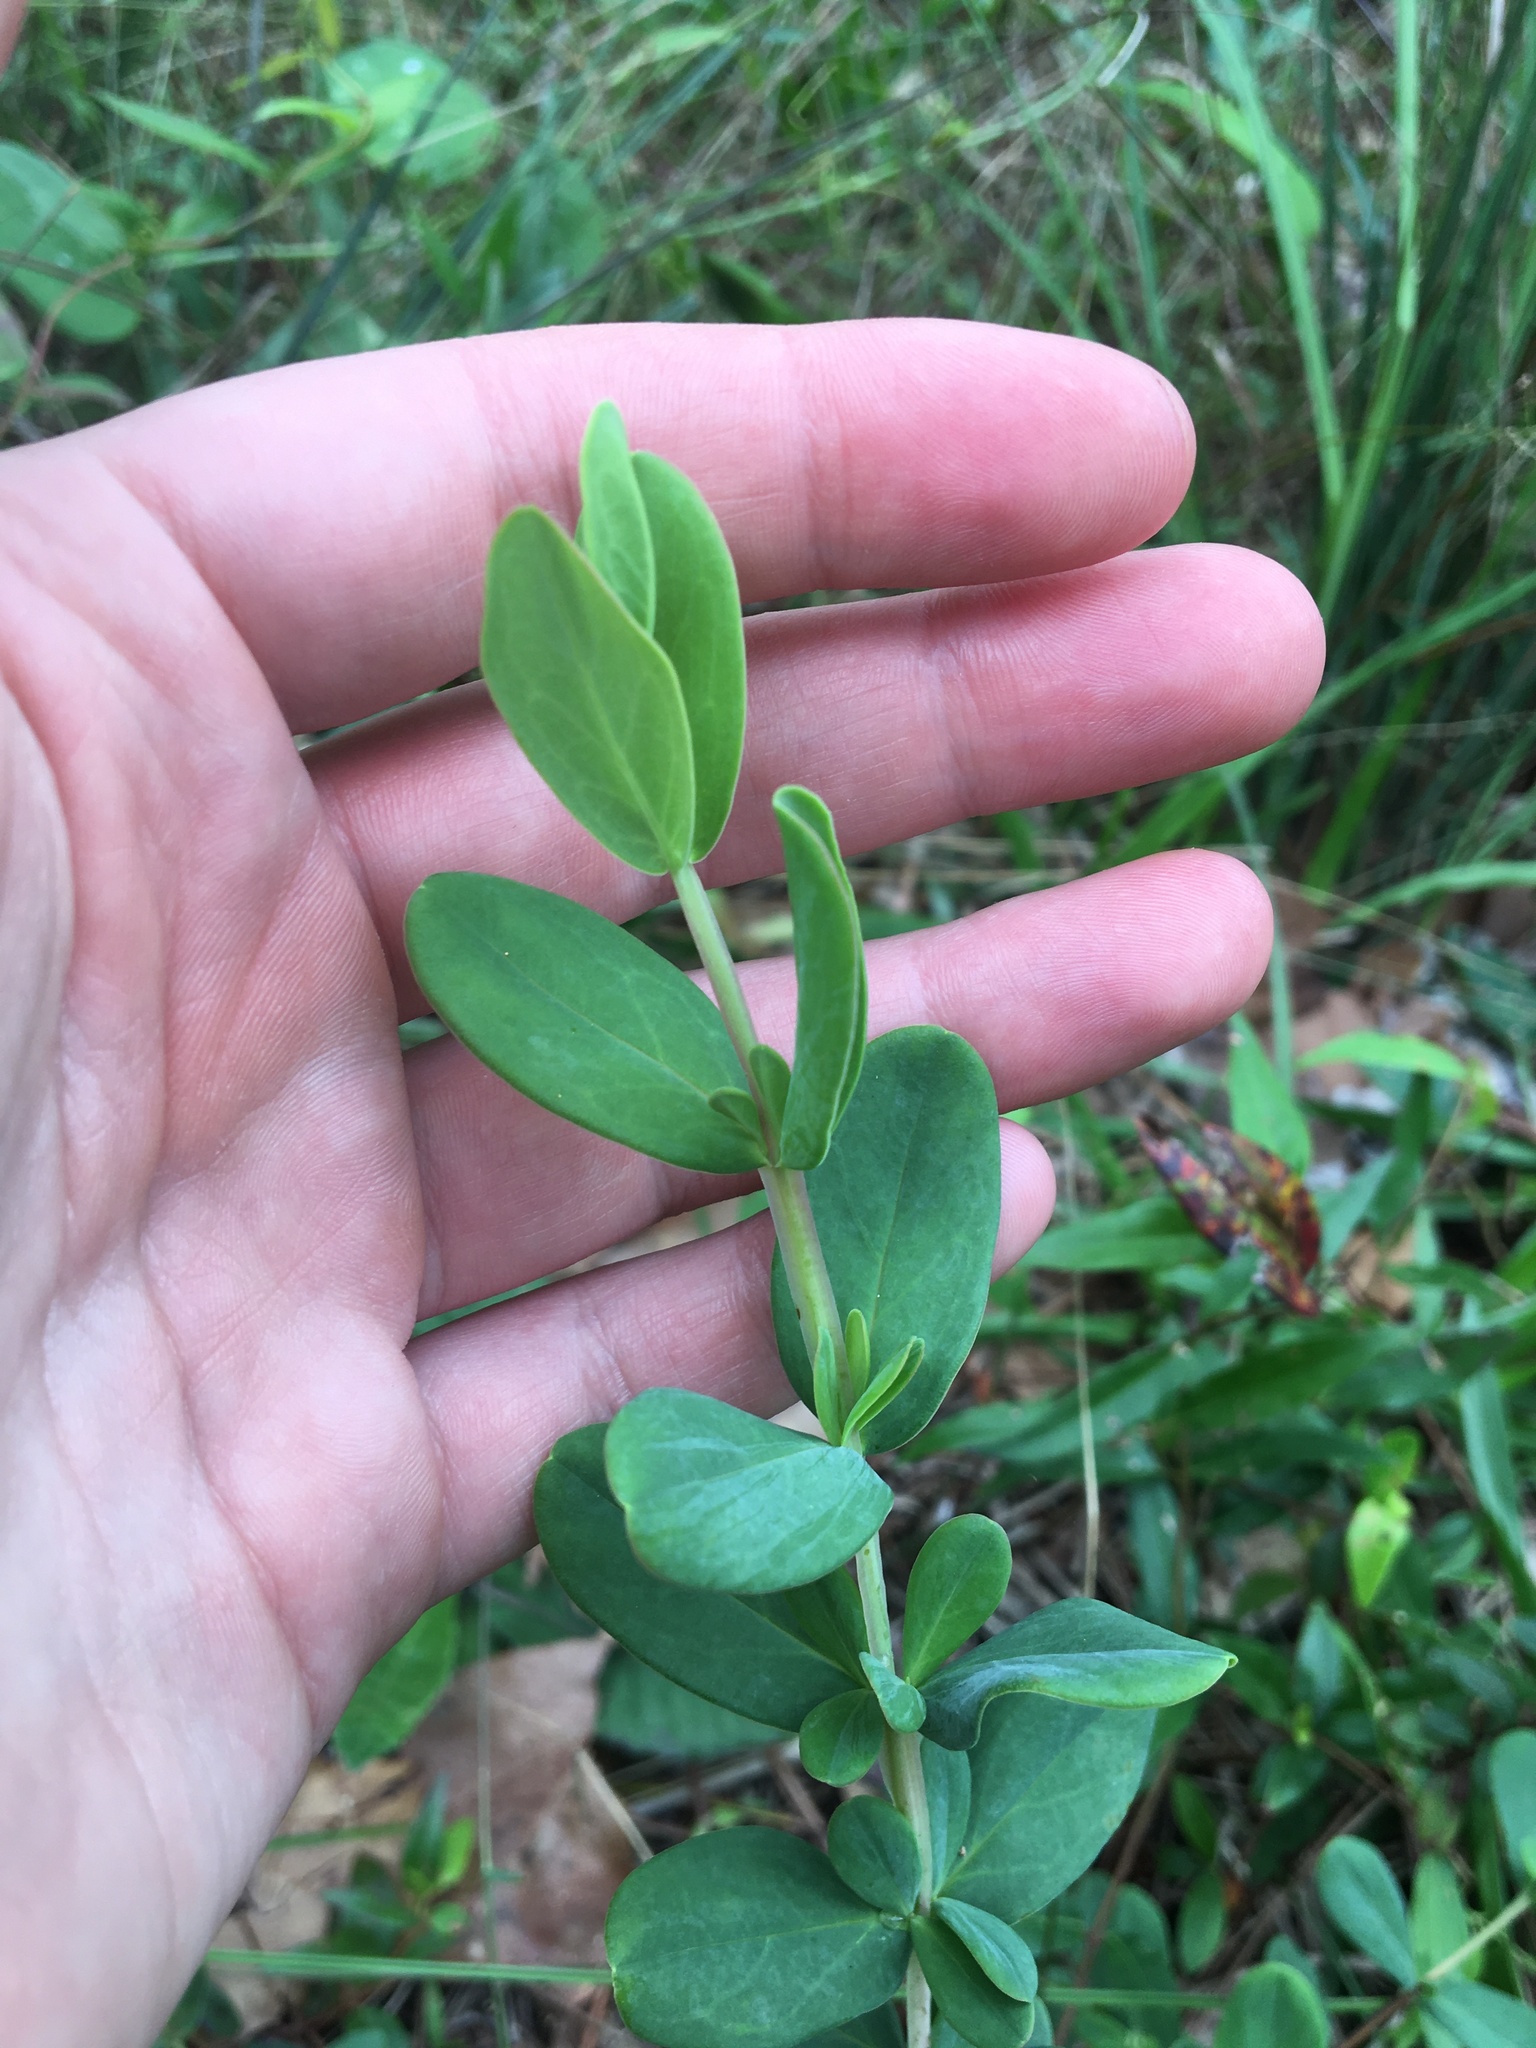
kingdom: Plantae
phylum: Tracheophyta
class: Magnoliopsida
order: Malpighiales
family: Hypericaceae
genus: Hypericum
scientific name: Hypericum crux-andreae
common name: St.-peter's-wort
